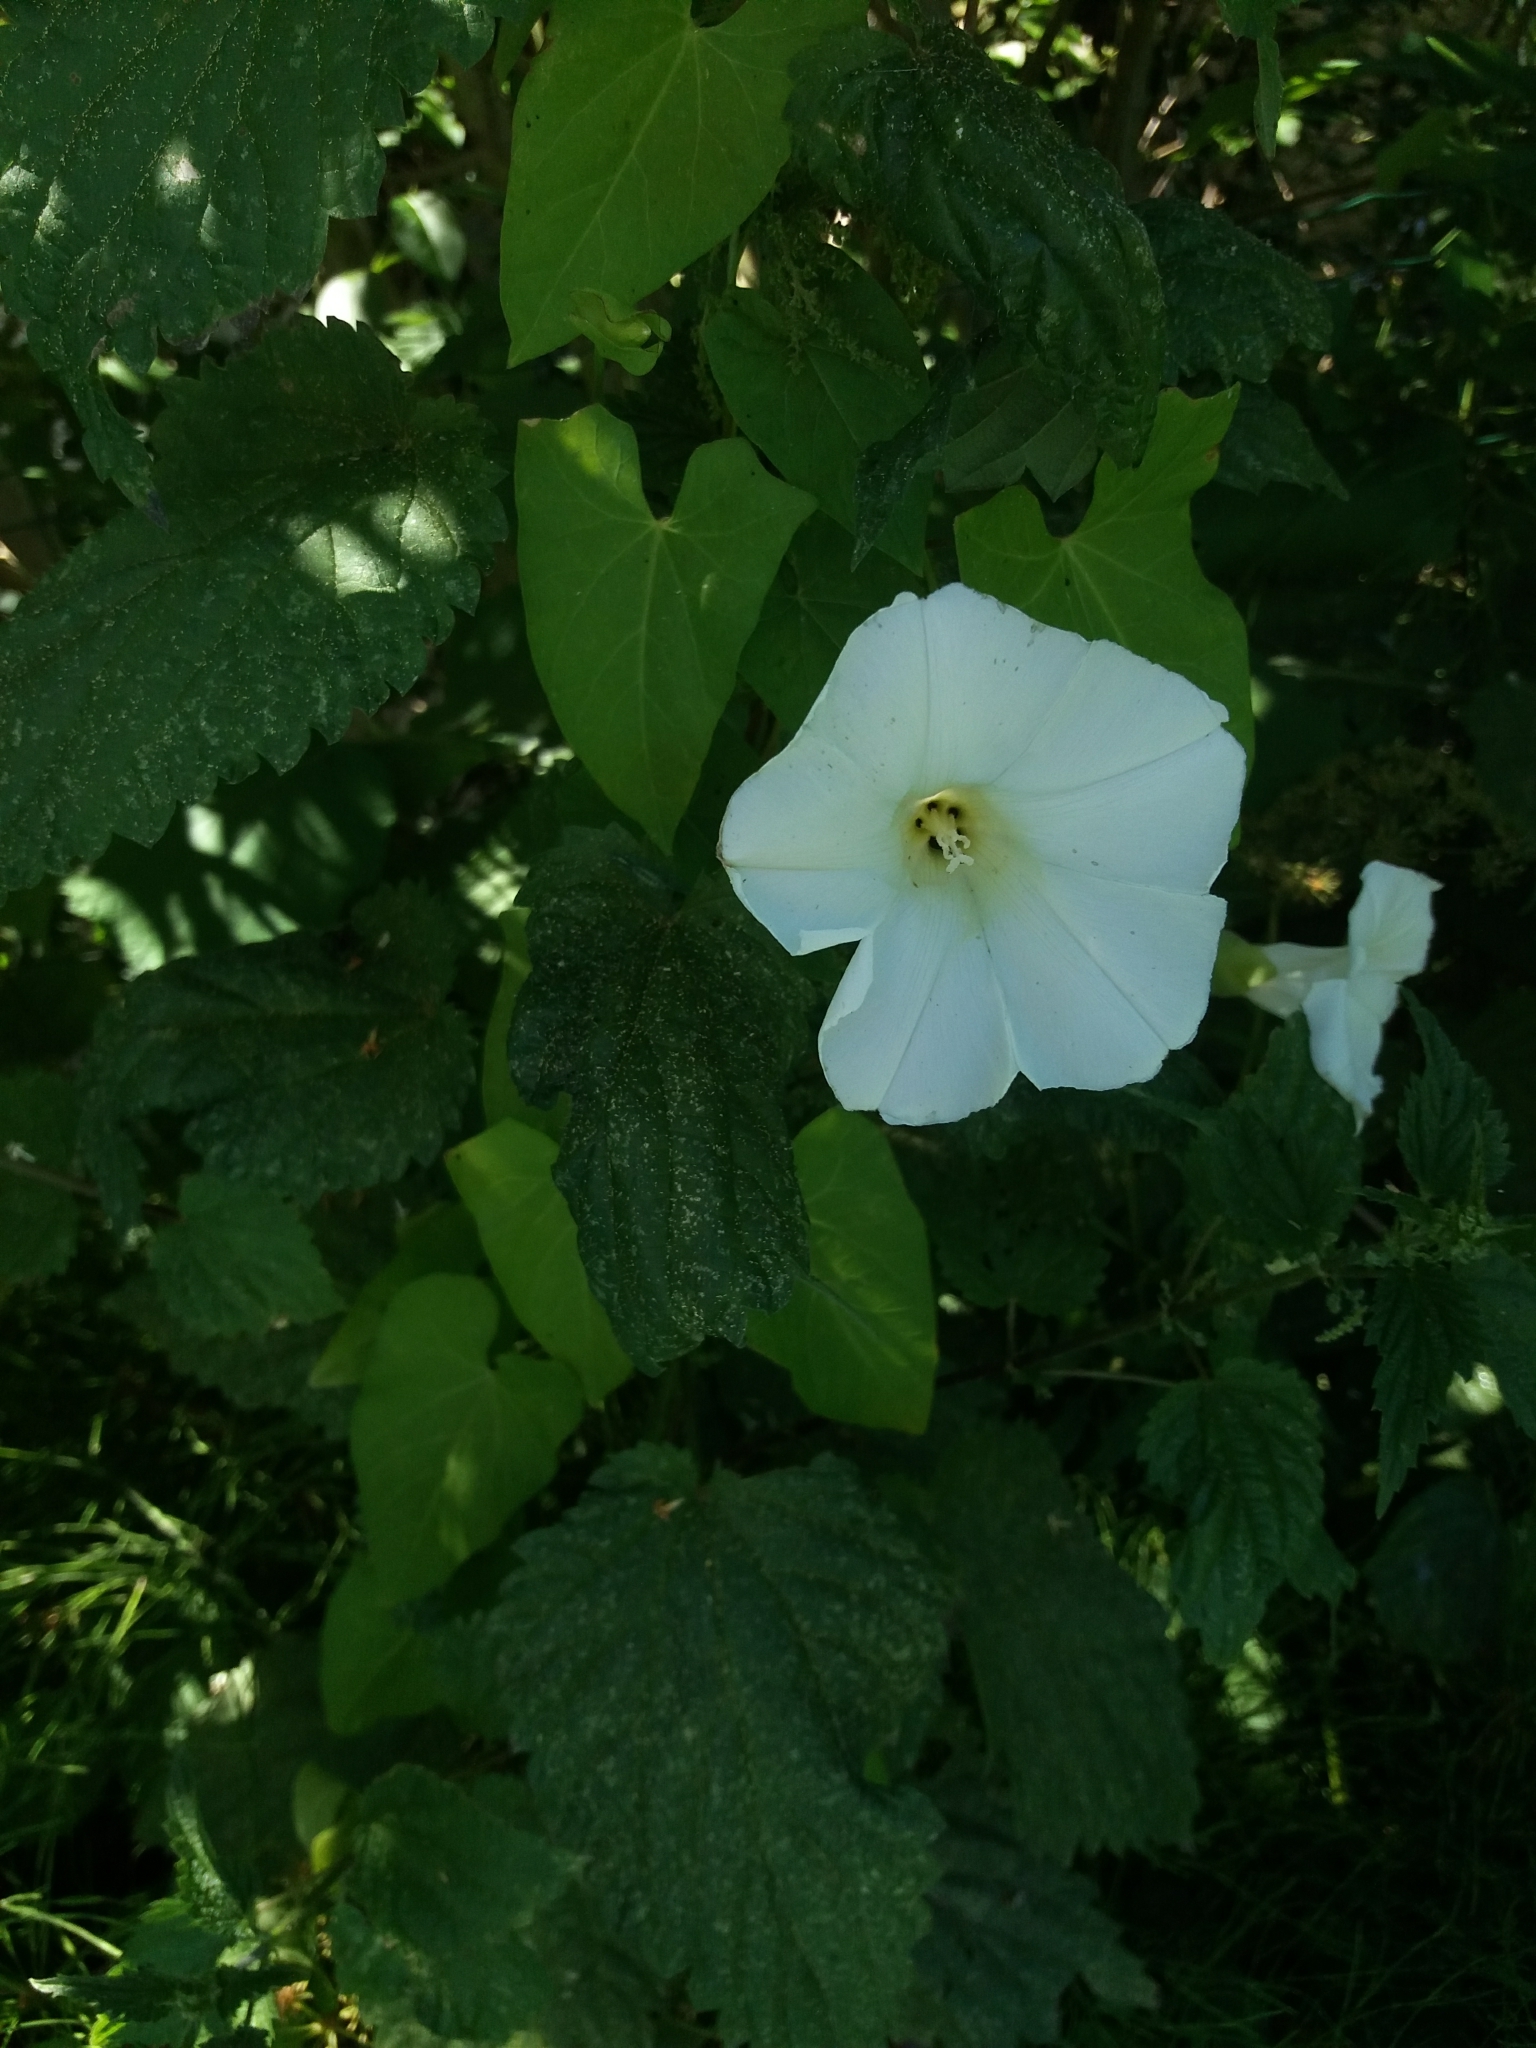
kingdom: Plantae
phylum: Tracheophyta
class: Magnoliopsida
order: Solanales
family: Convolvulaceae
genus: Calystegia
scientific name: Calystegia sepium
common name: Hedge bindweed
